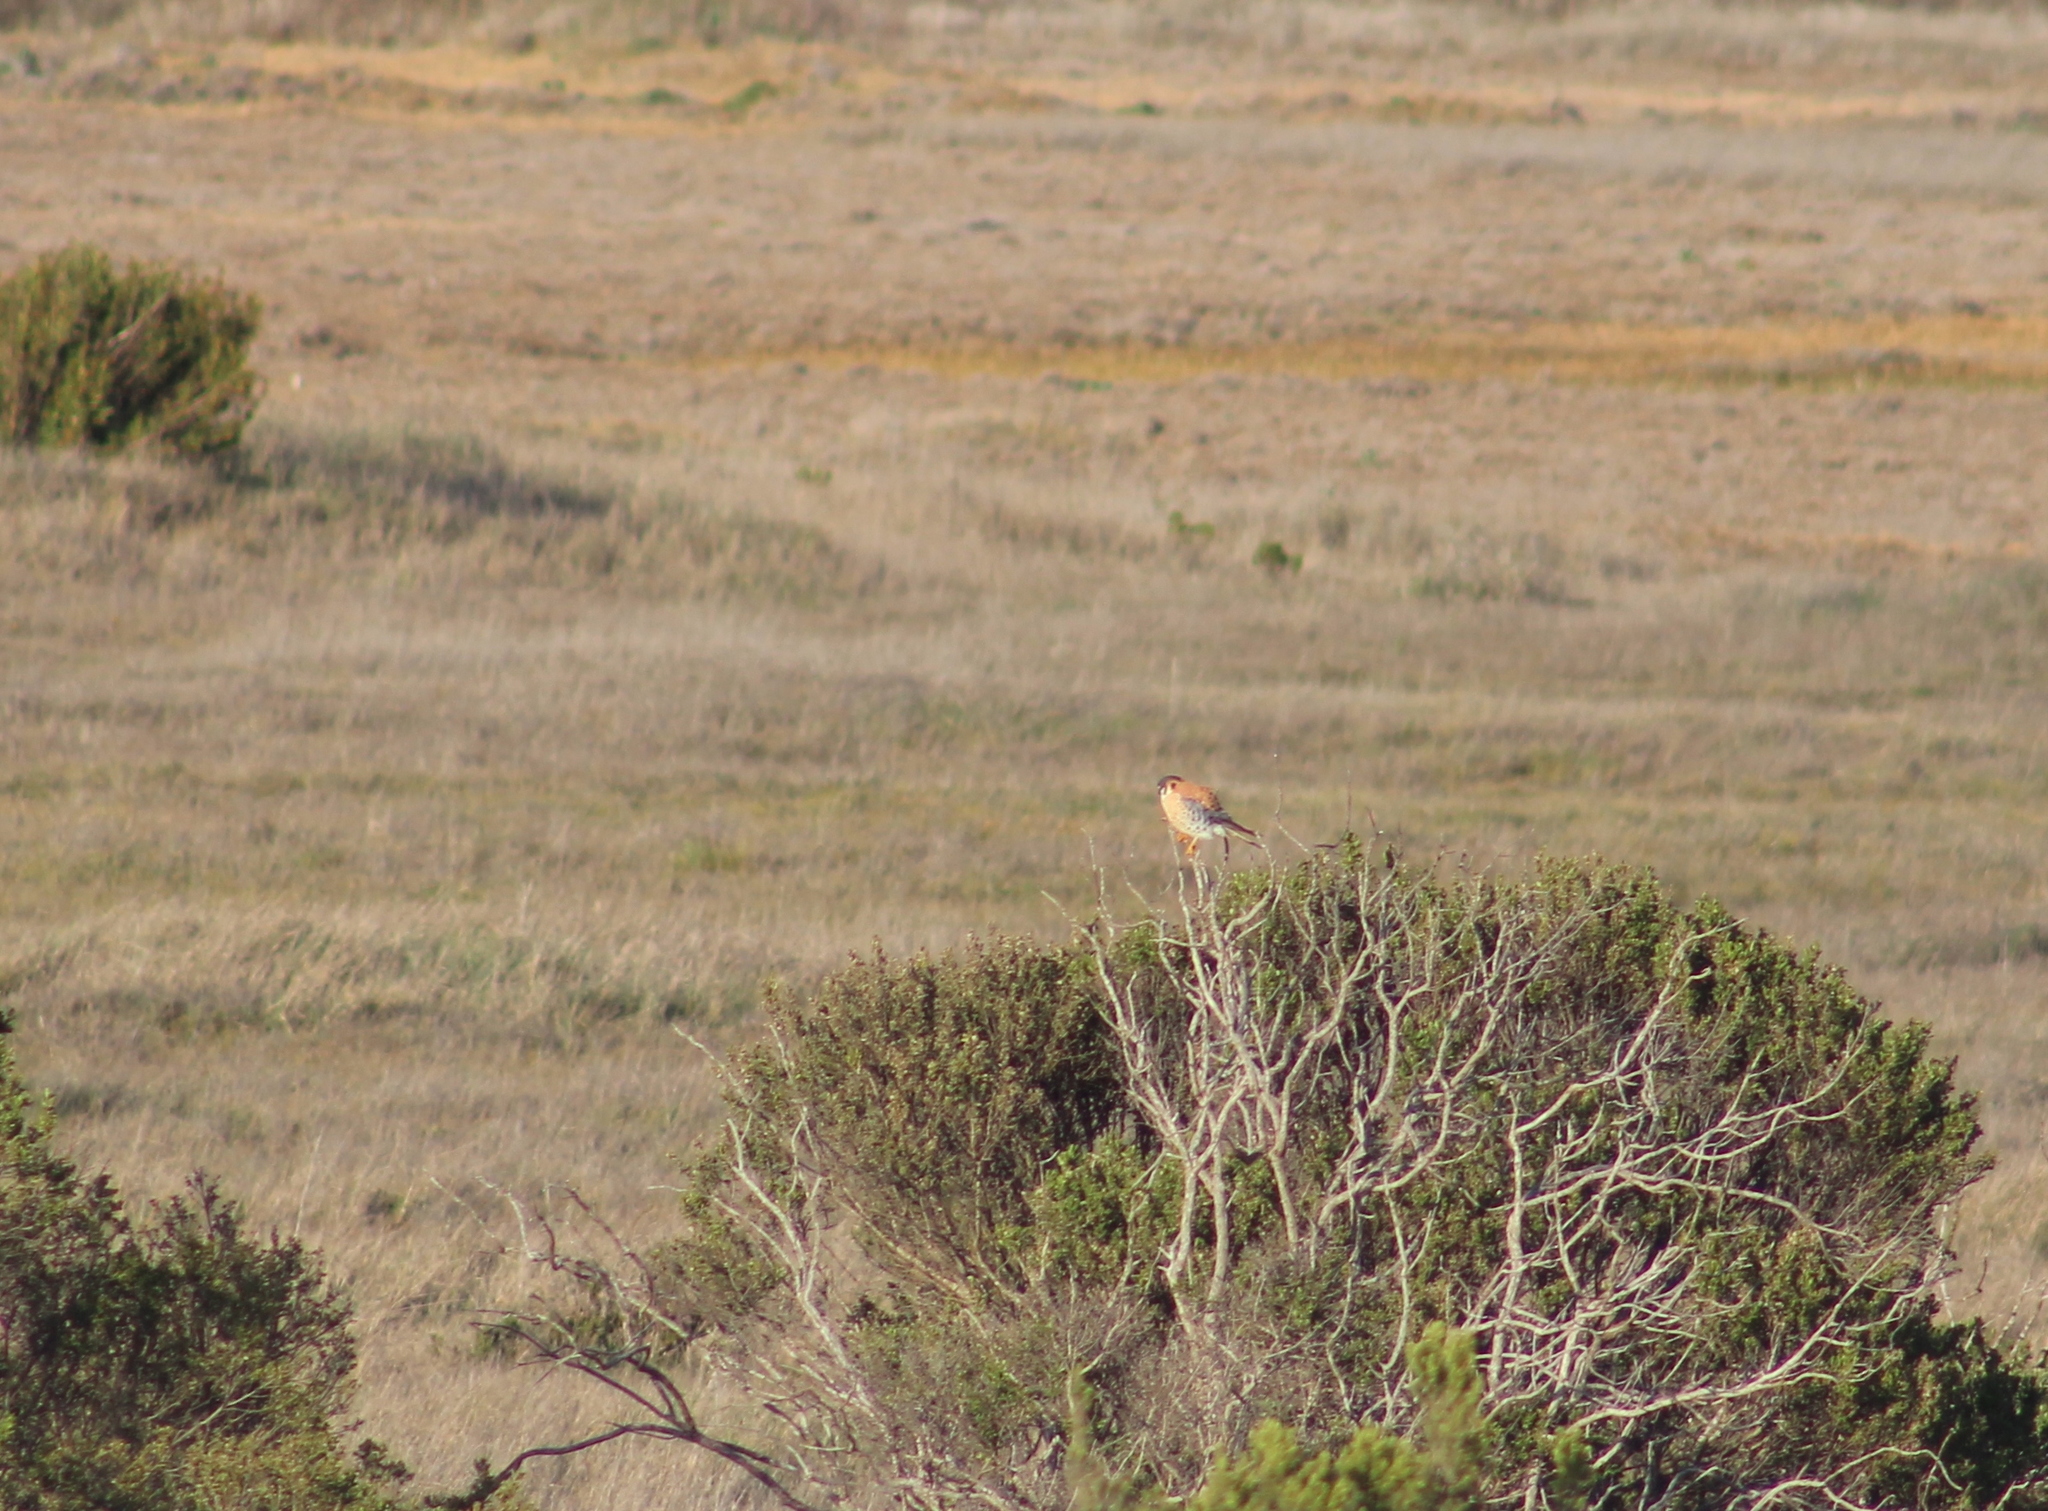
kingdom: Animalia
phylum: Chordata
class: Aves
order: Falconiformes
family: Falconidae
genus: Falco
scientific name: Falco sparverius
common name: American kestrel
